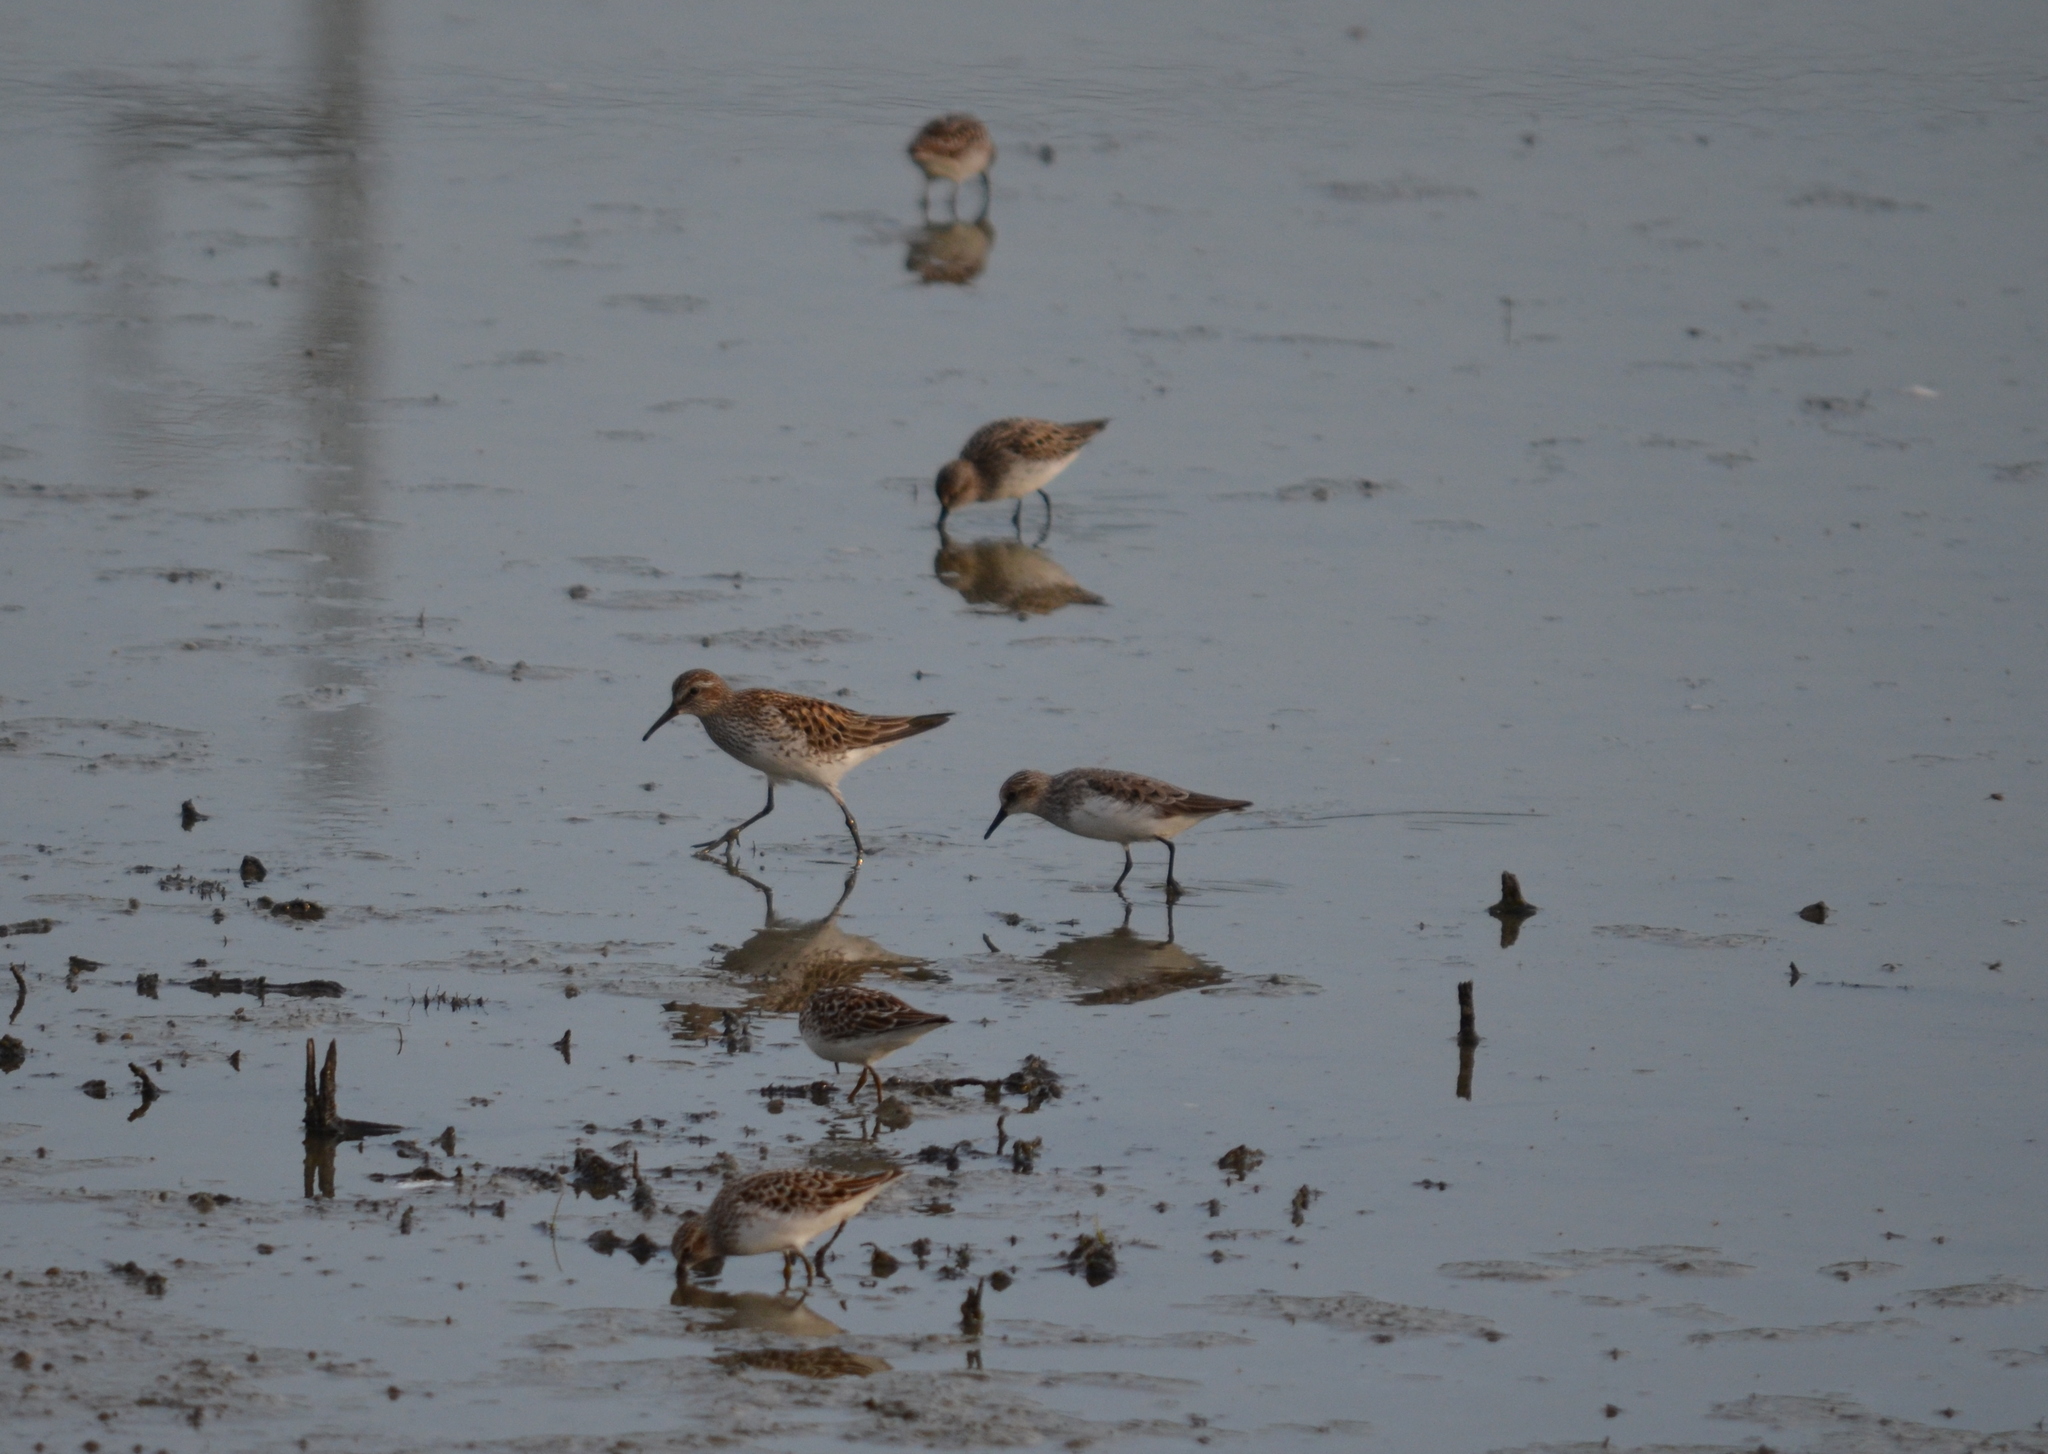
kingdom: Animalia
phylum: Chordata
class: Aves
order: Charadriiformes
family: Scolopacidae
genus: Calidris
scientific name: Calidris fuscicollis
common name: White-rumped sandpiper
